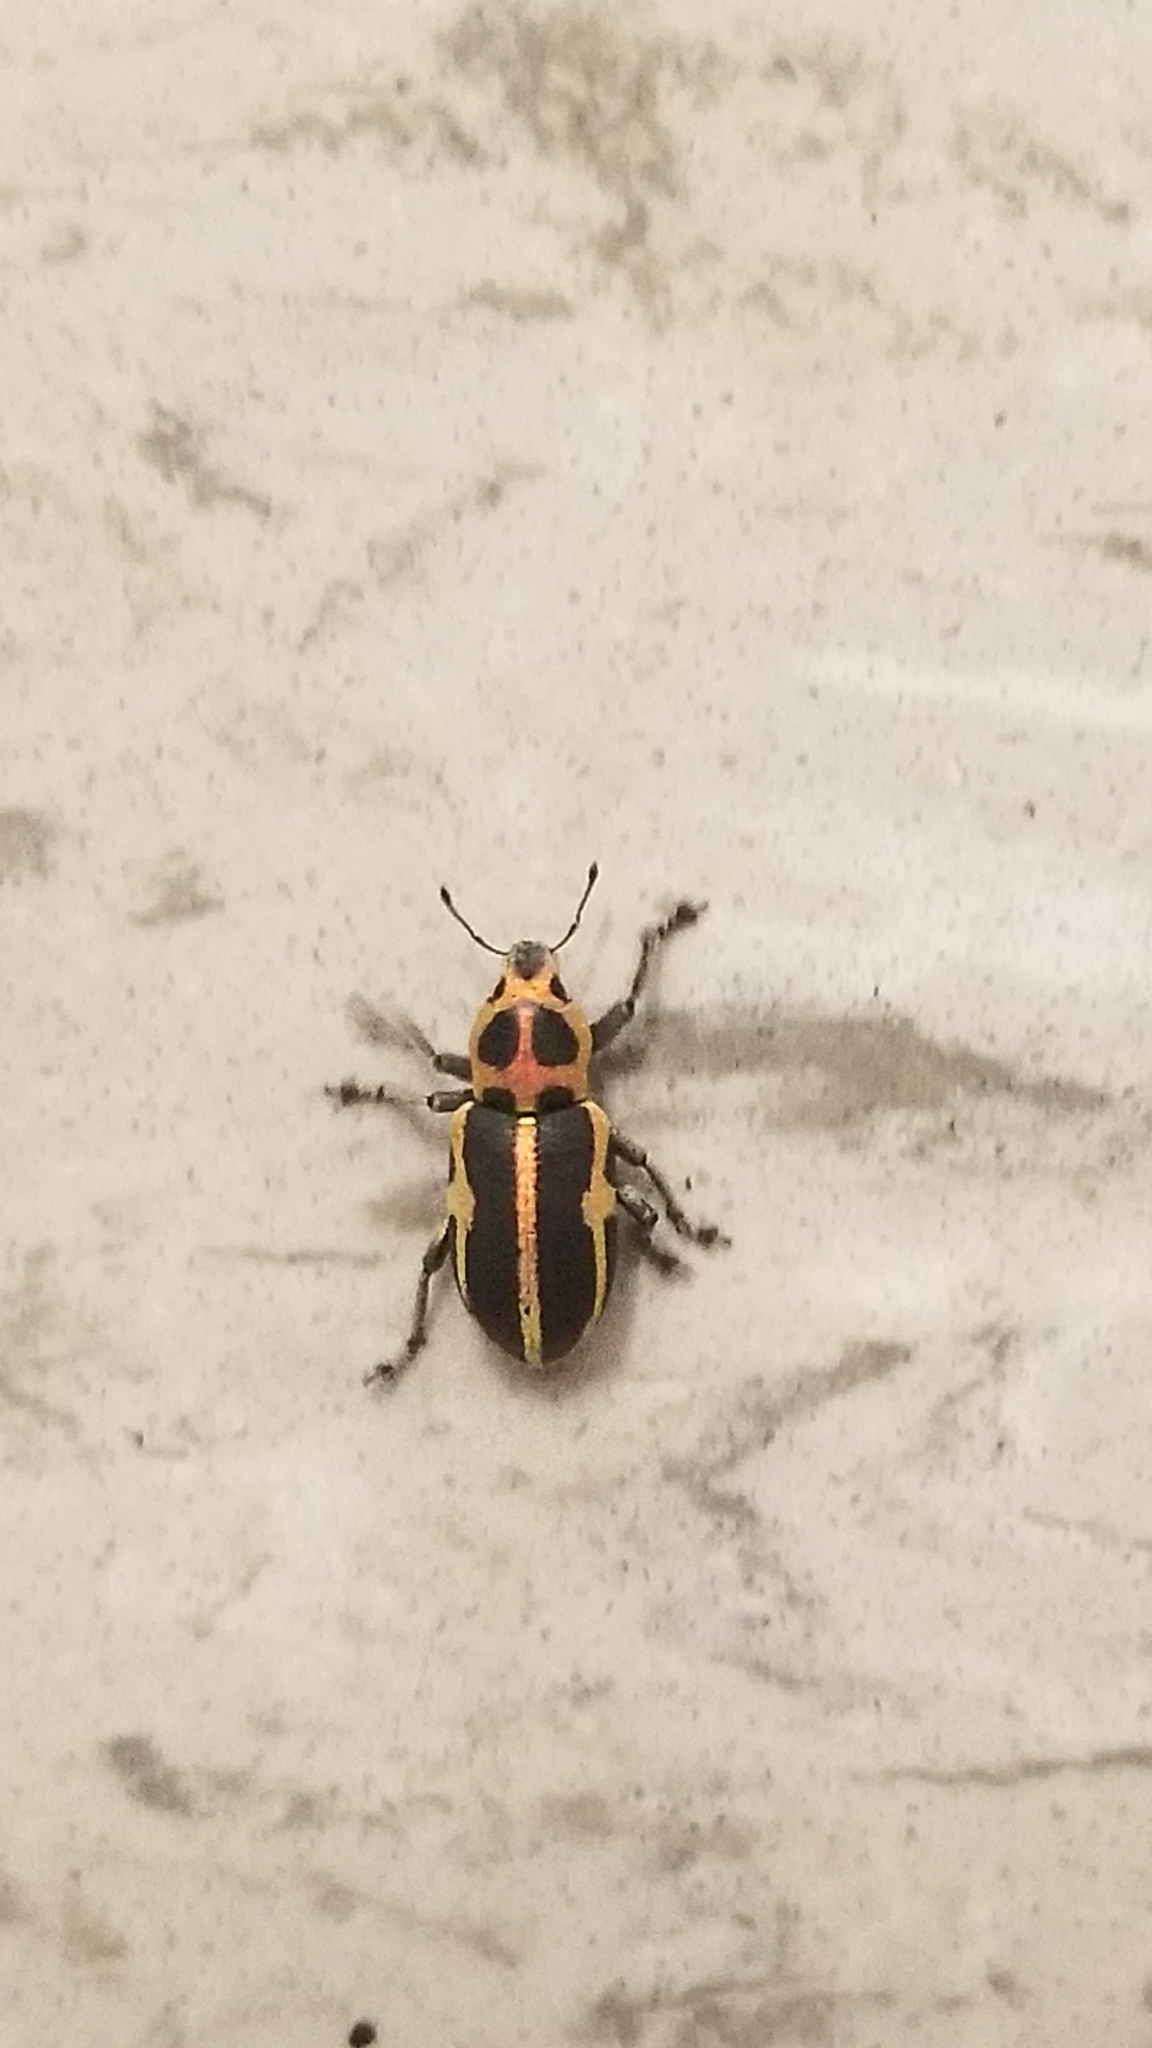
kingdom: Animalia
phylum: Arthropoda
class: Insecta
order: Coleoptera
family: Curculionidae
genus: Eudiagogus
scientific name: Eudiagogus pulcher
